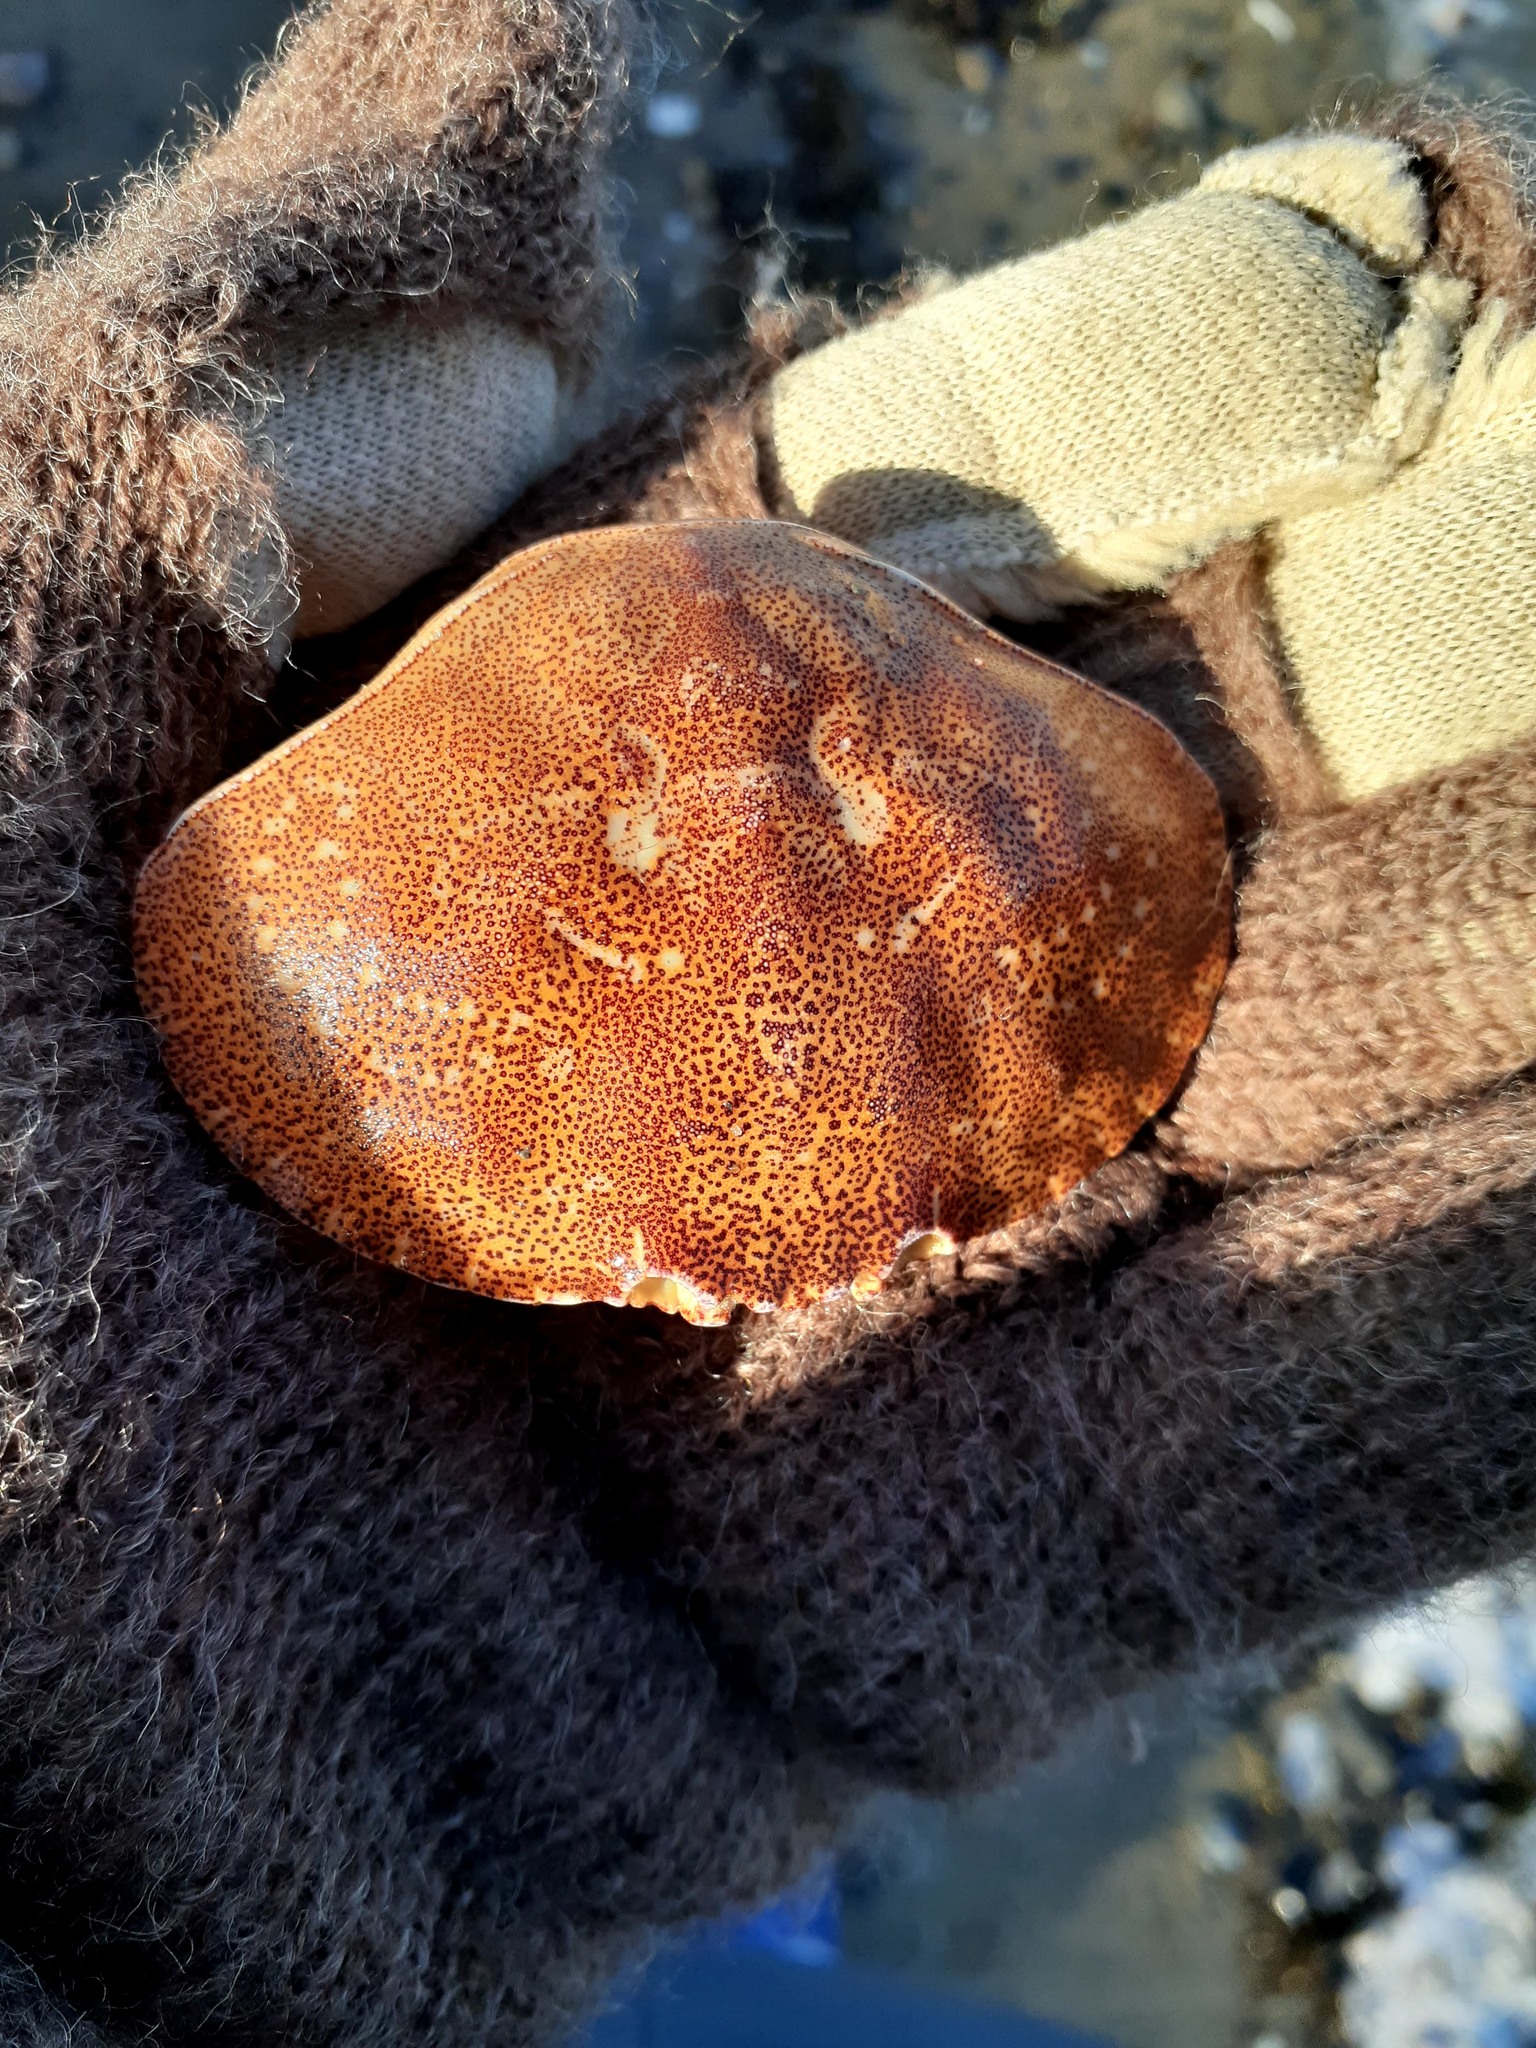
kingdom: Animalia
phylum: Arthropoda
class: Malacostraca
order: Decapoda
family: Cancridae
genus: Cancer
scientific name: Cancer irroratus
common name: Atlantic rock crab
